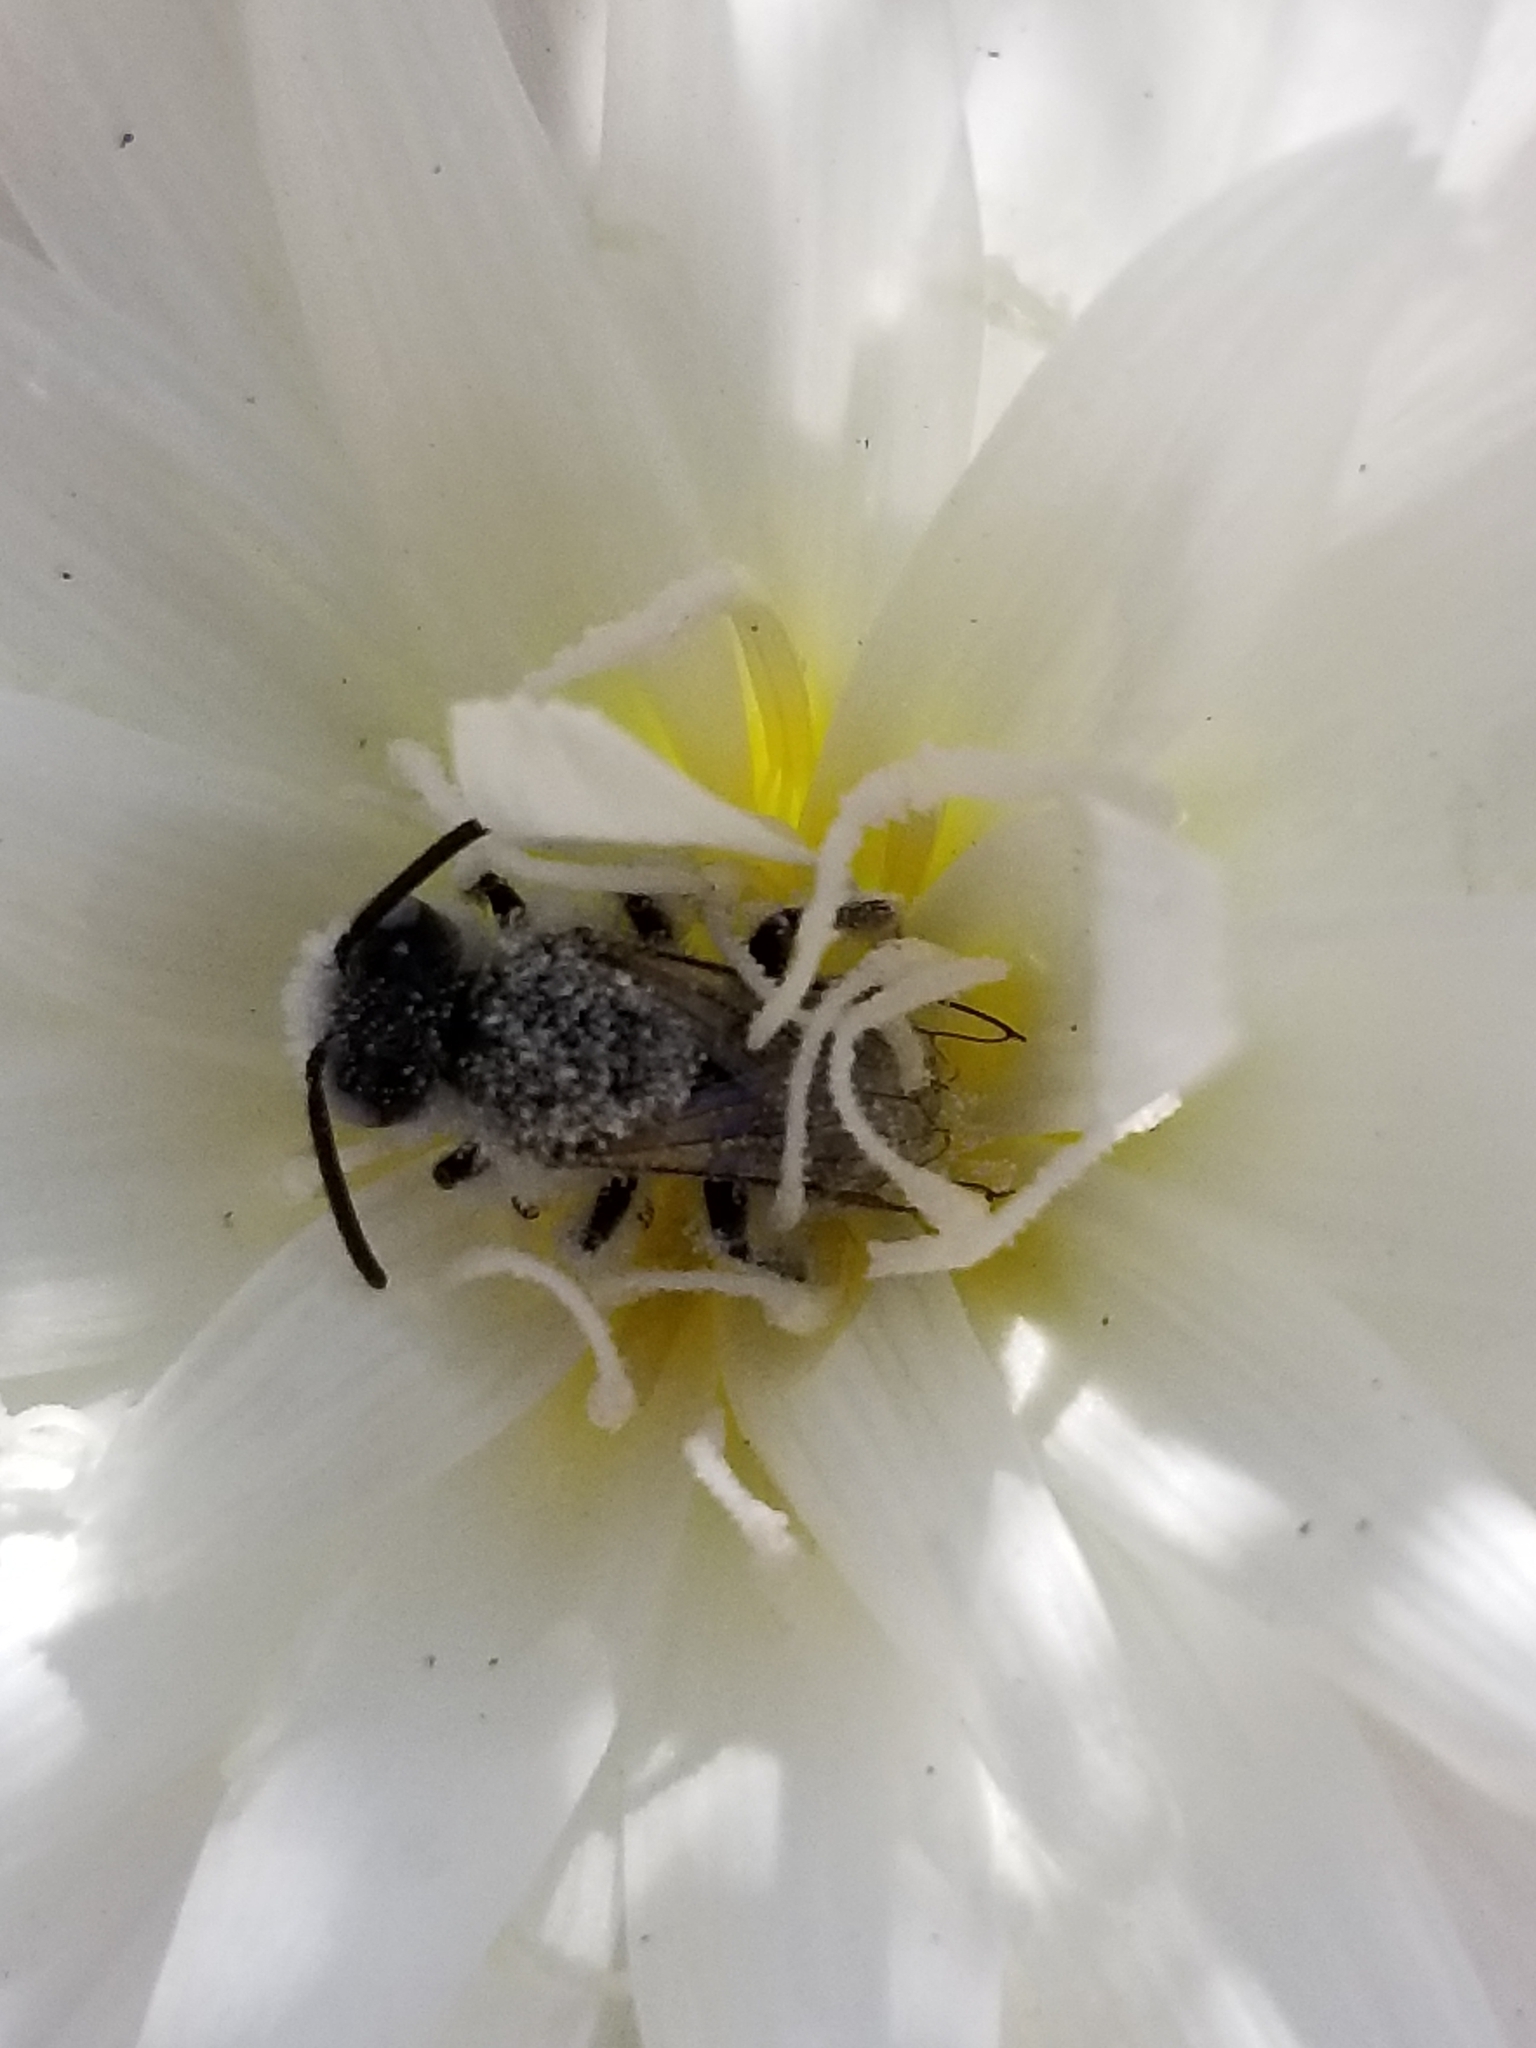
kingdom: Animalia
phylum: Arthropoda
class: Insecta
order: Hymenoptera
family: Melittidae
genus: Hesperapis
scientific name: Hesperapis
